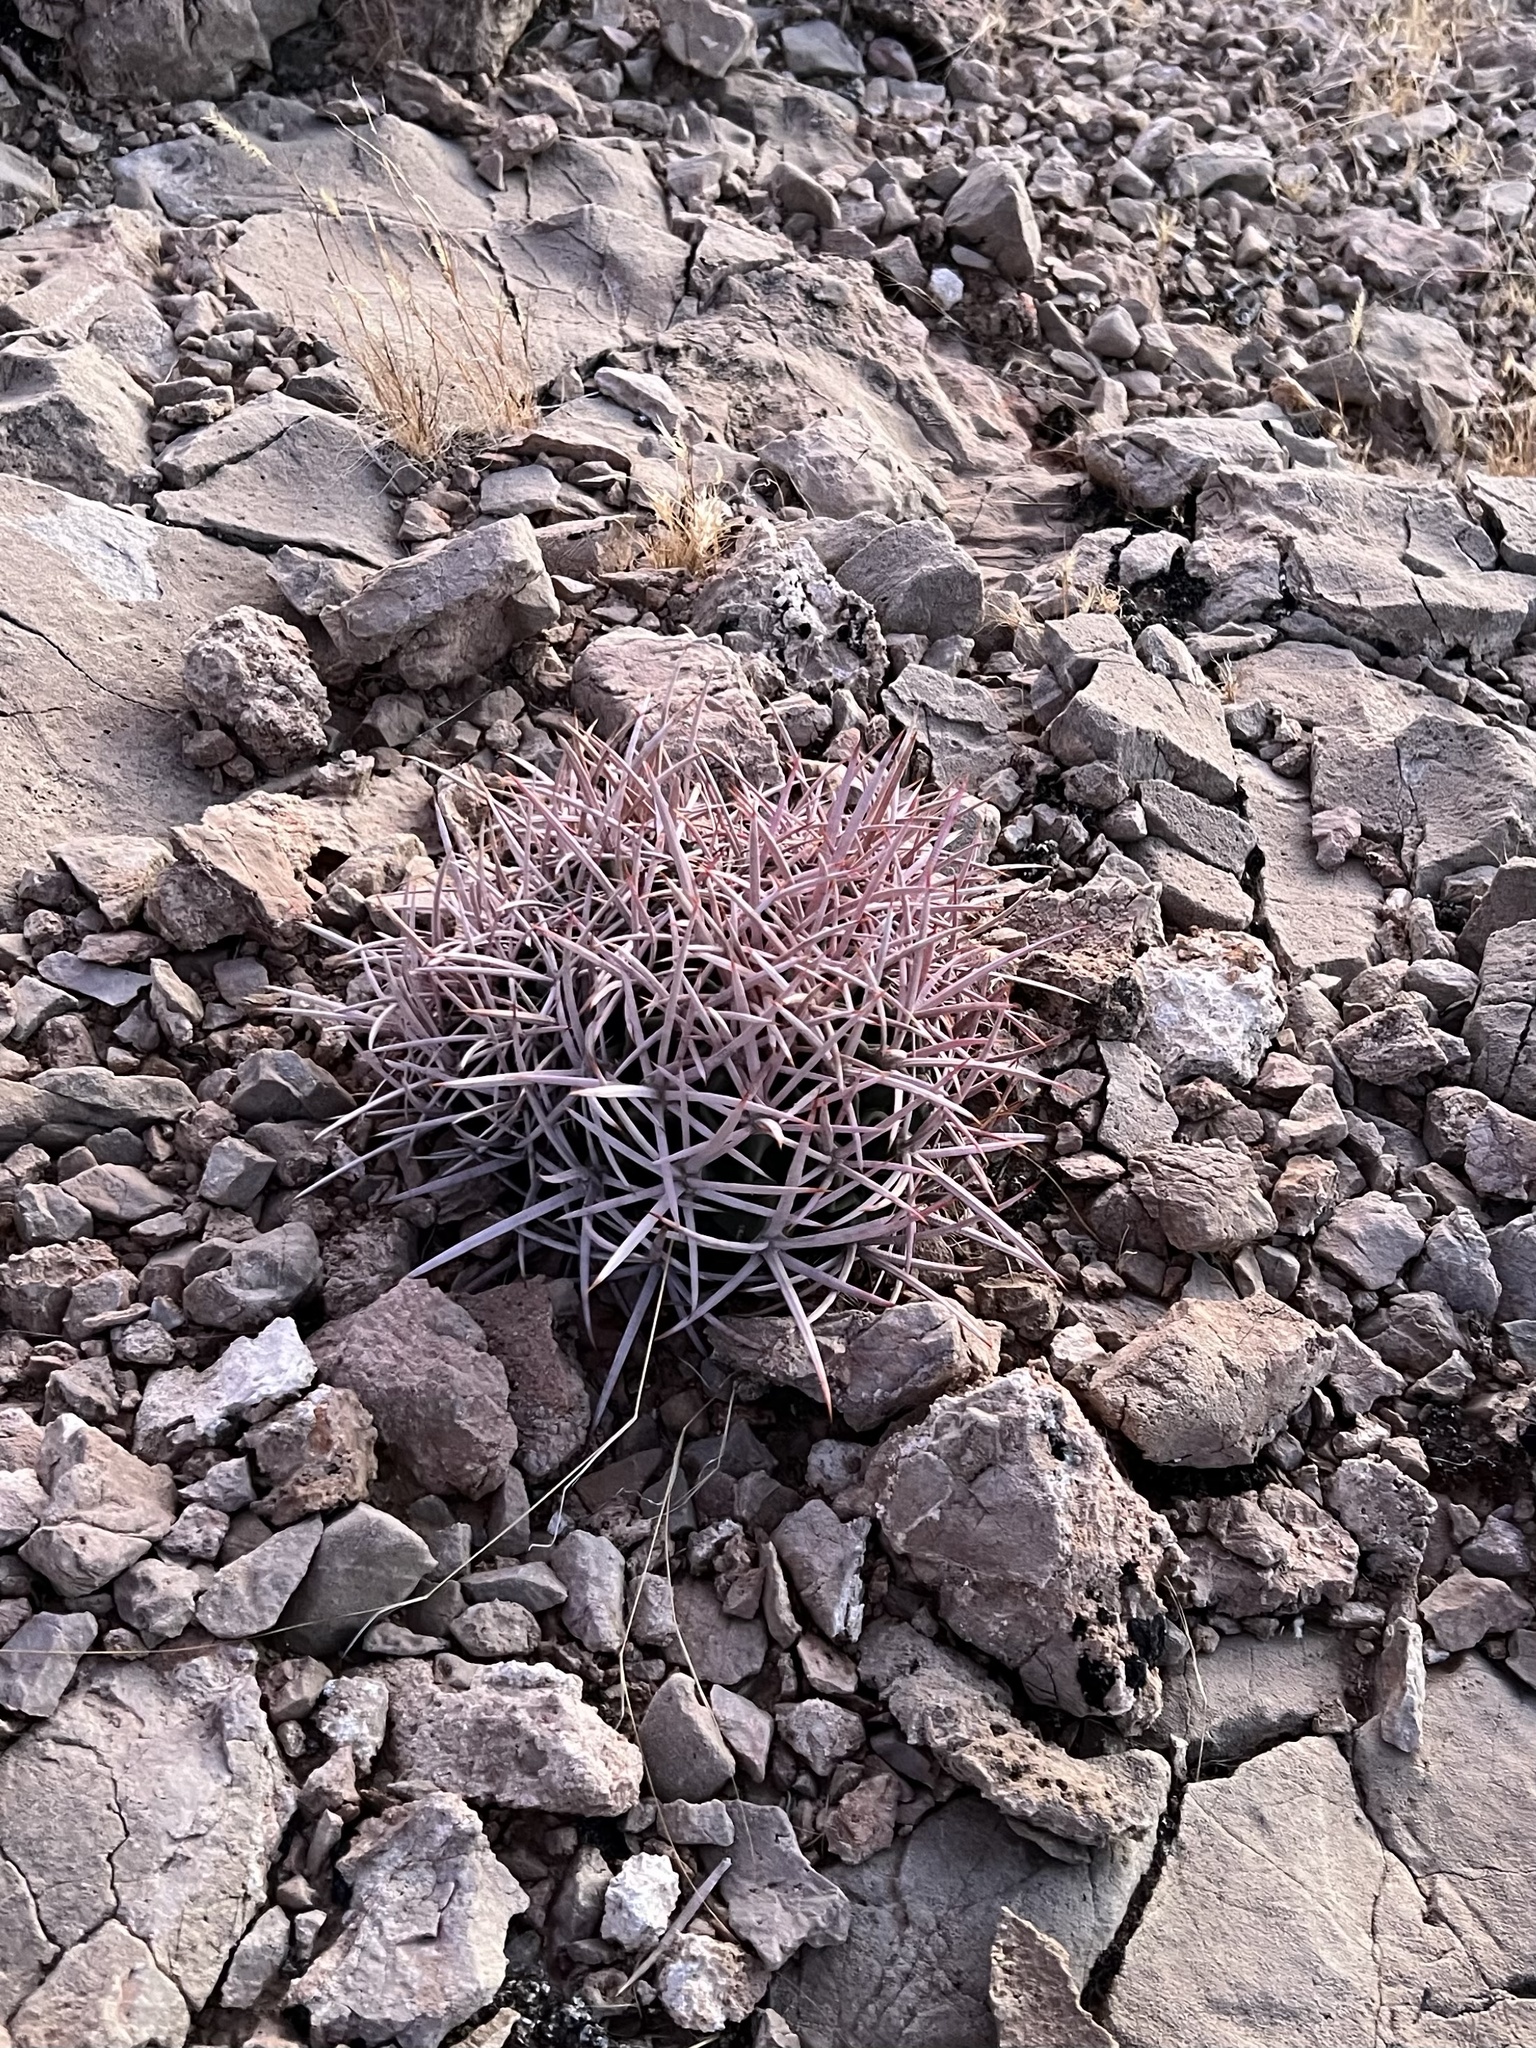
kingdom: Plantae
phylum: Tracheophyta
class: Magnoliopsida
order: Caryophyllales
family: Cactaceae
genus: Echinocactus
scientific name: Echinocactus polycephalus
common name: Cottontop cactus
